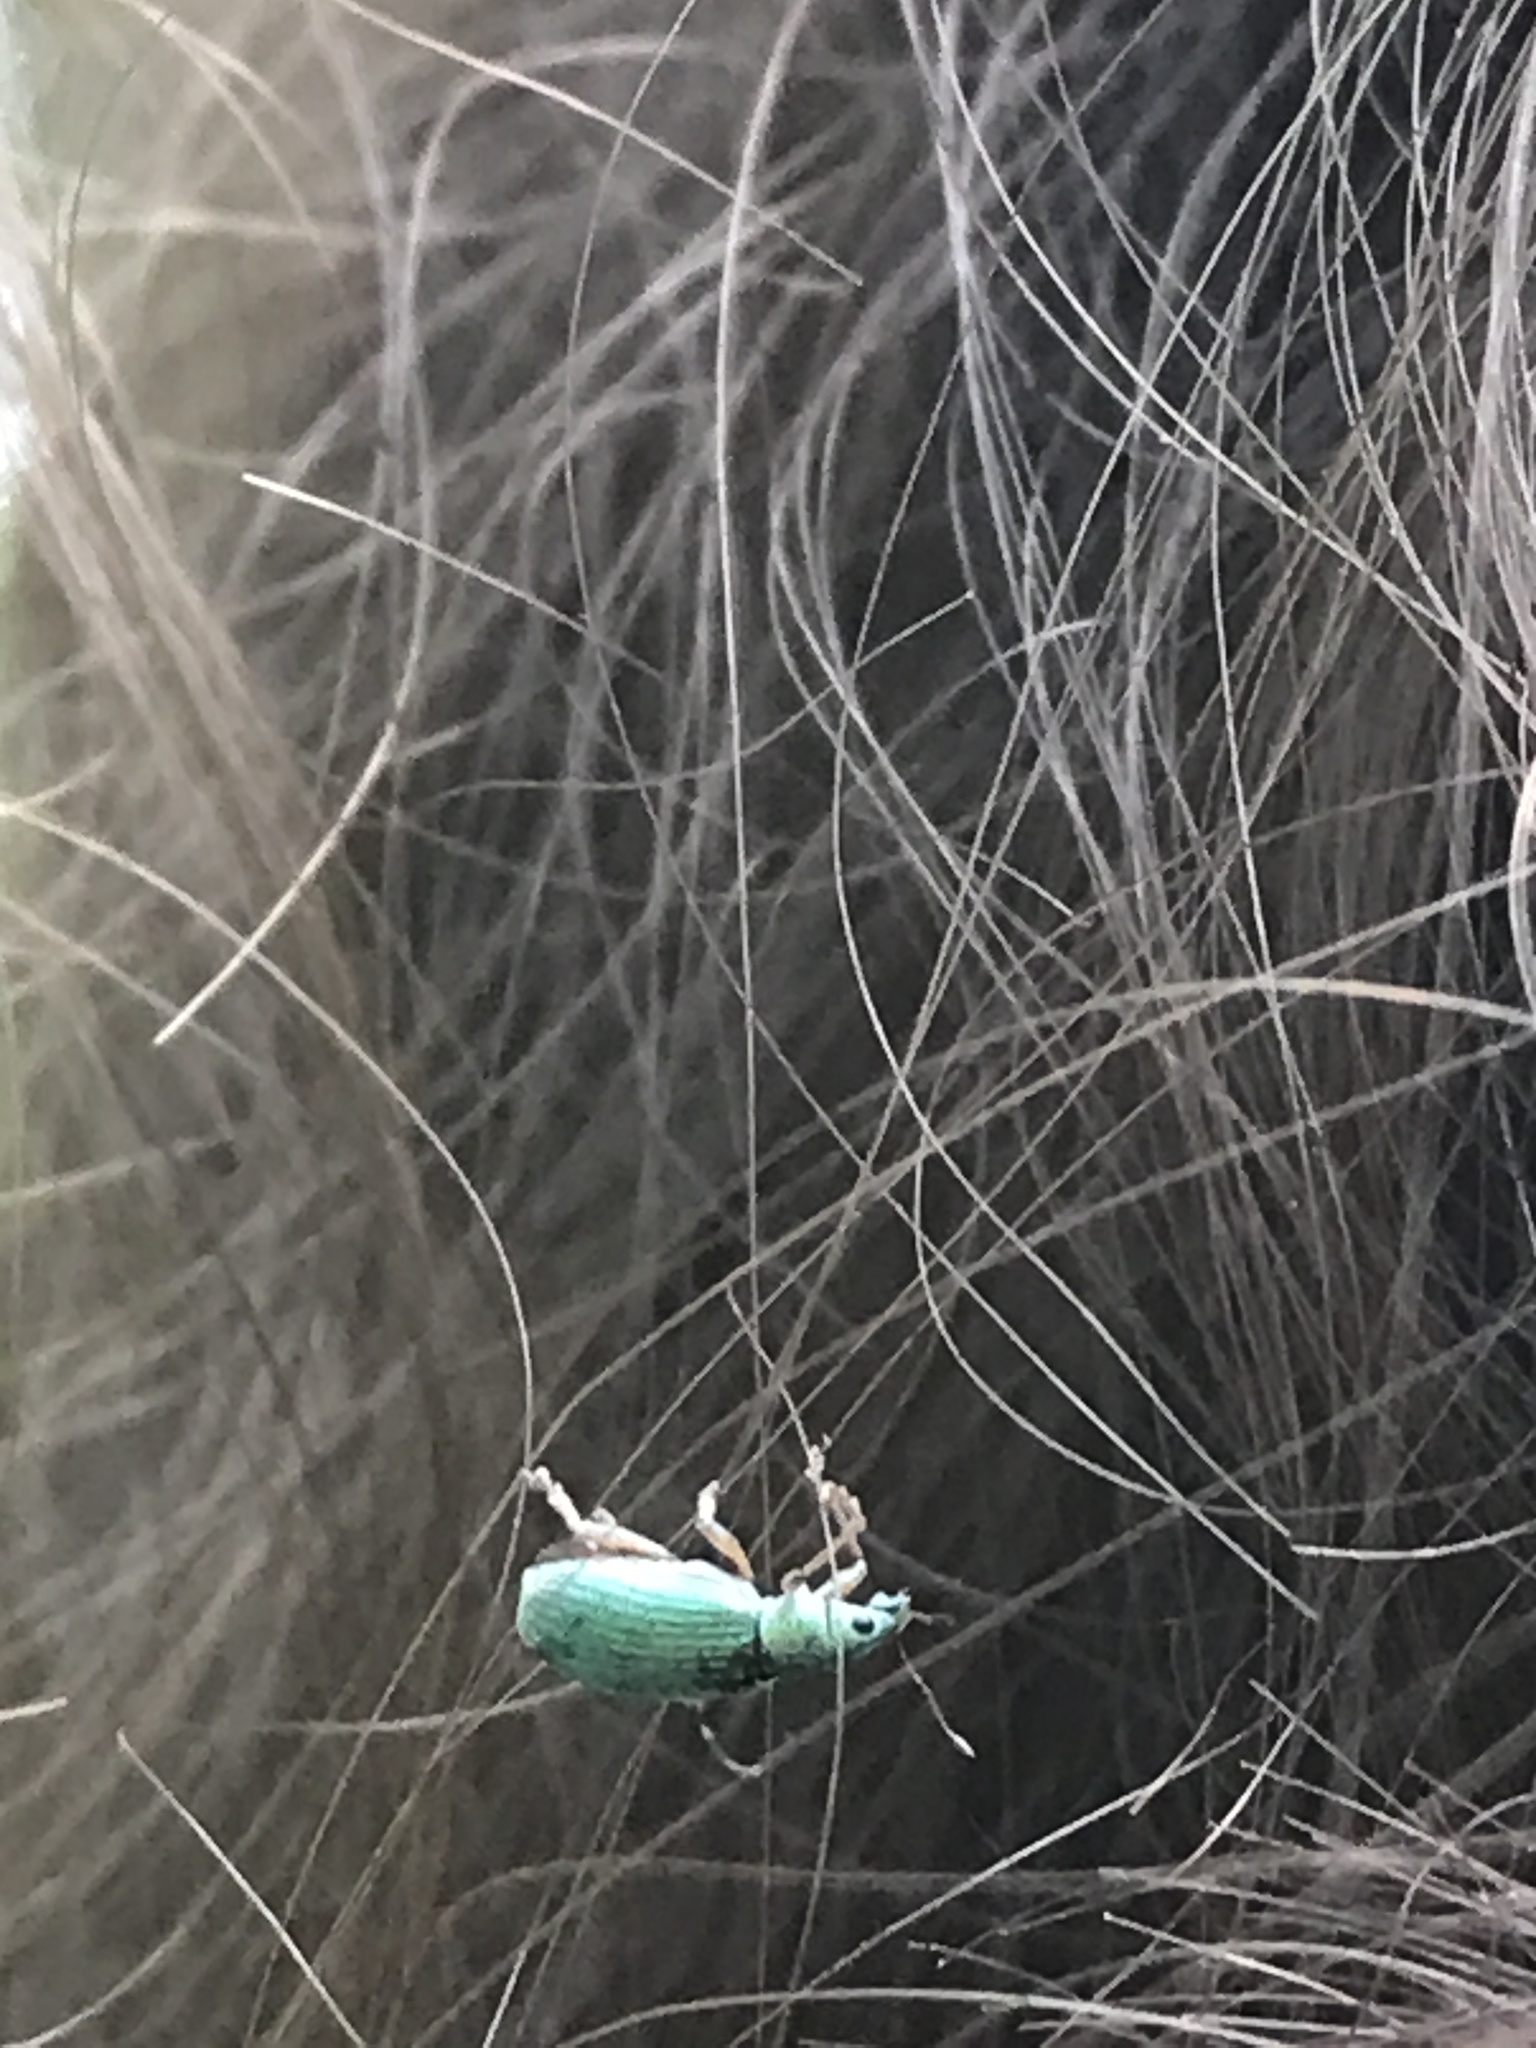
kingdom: Animalia
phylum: Arthropoda
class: Insecta
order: Coleoptera
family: Curculionidae
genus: Polydrusus
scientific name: Polydrusus formosus
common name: Weevil
